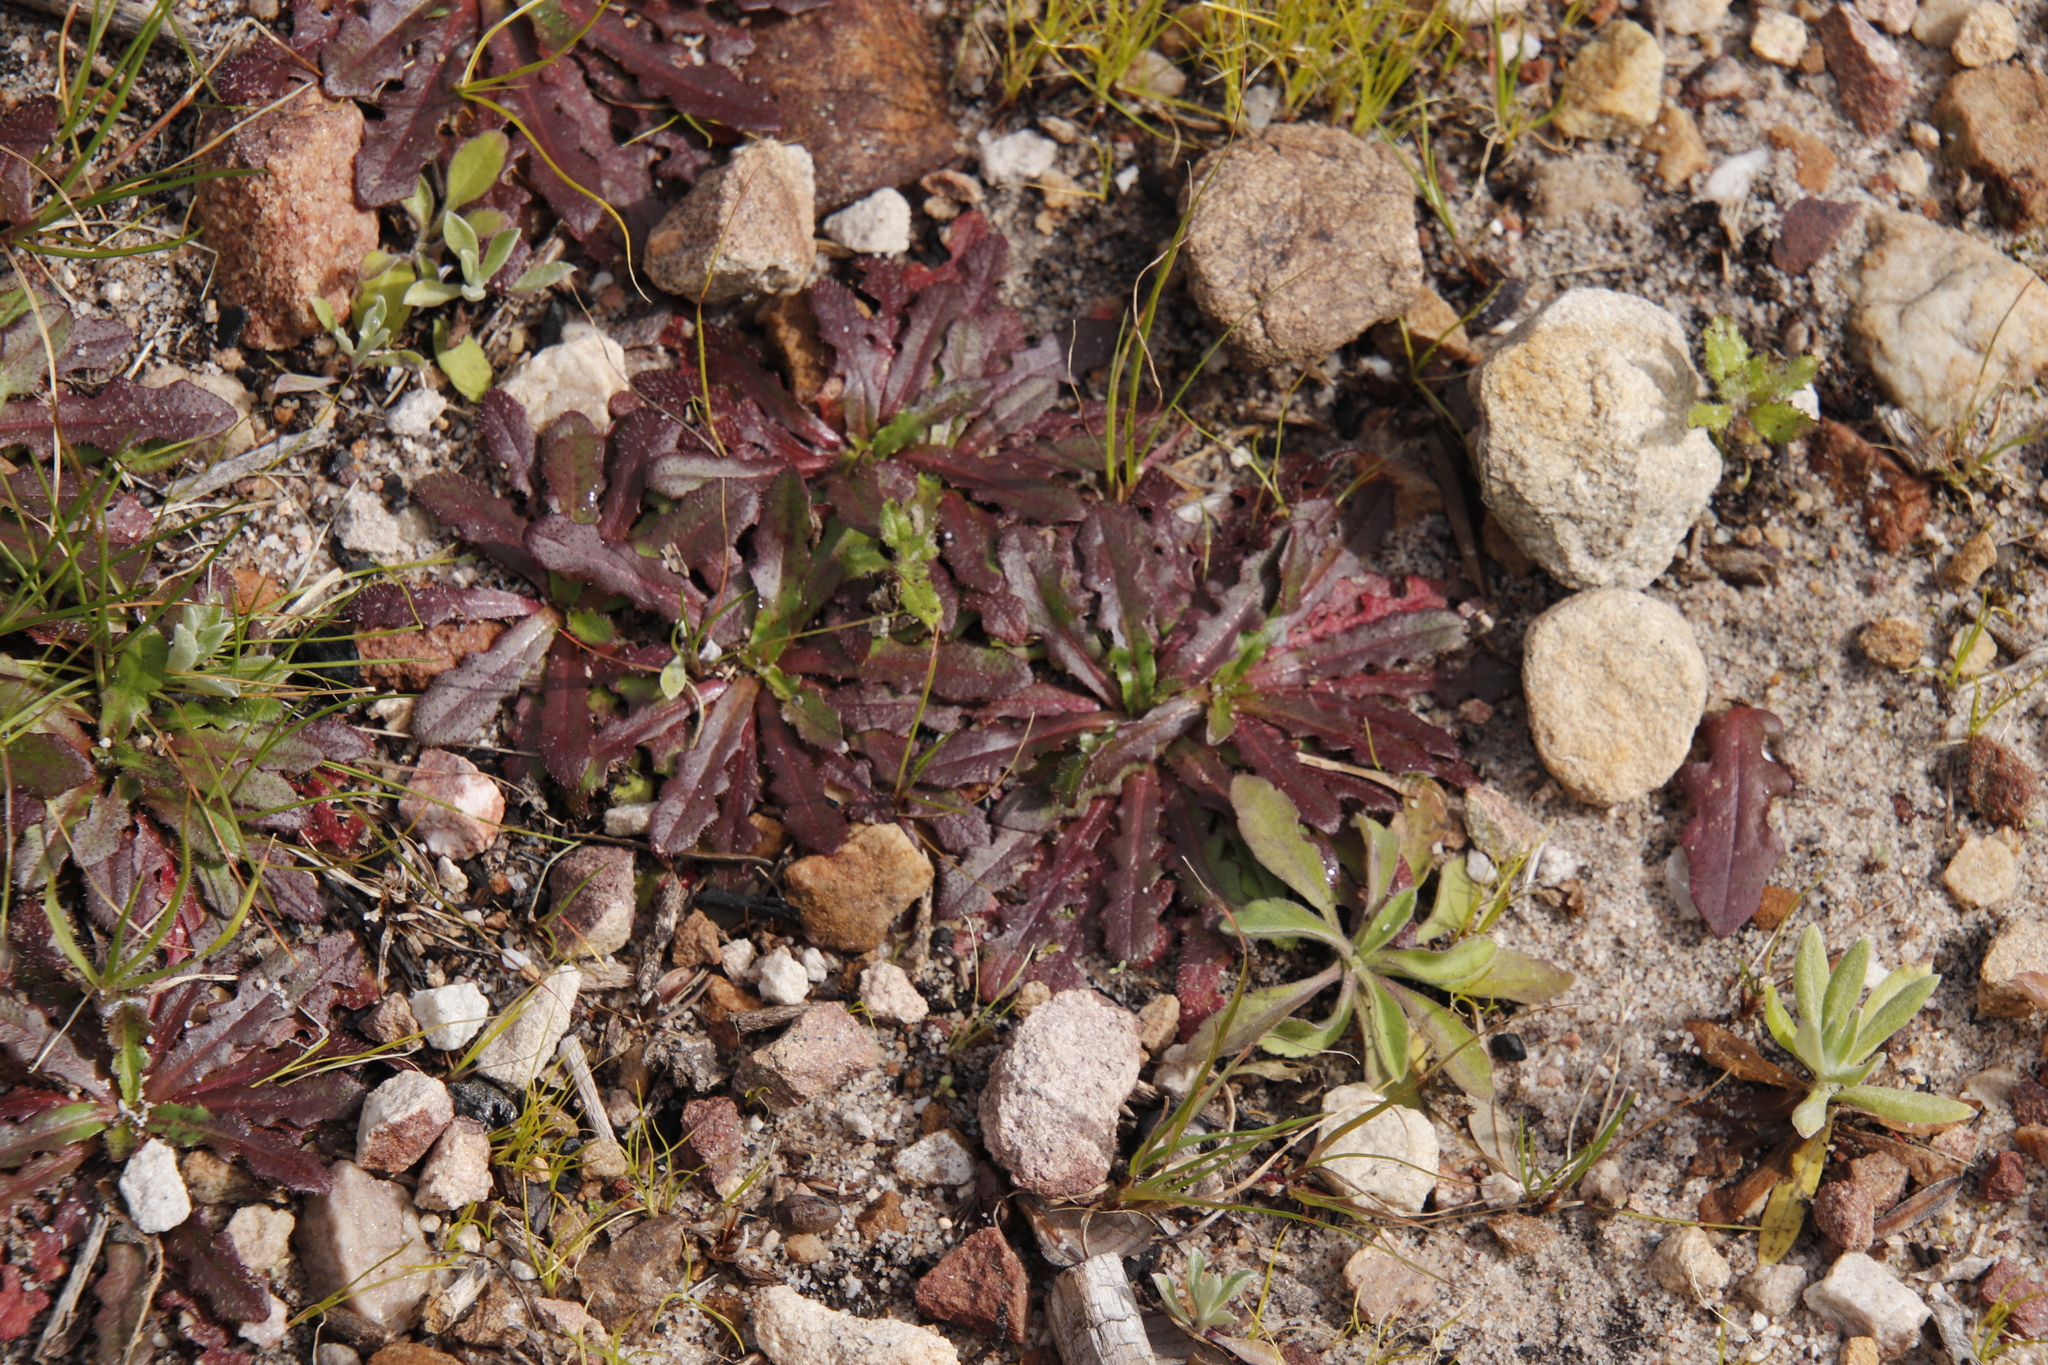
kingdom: Plantae
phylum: Tracheophyta
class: Magnoliopsida
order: Asterales
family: Asteraceae
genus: Hypochaeris
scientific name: Hypochaeris glabra
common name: Smooth catsear
